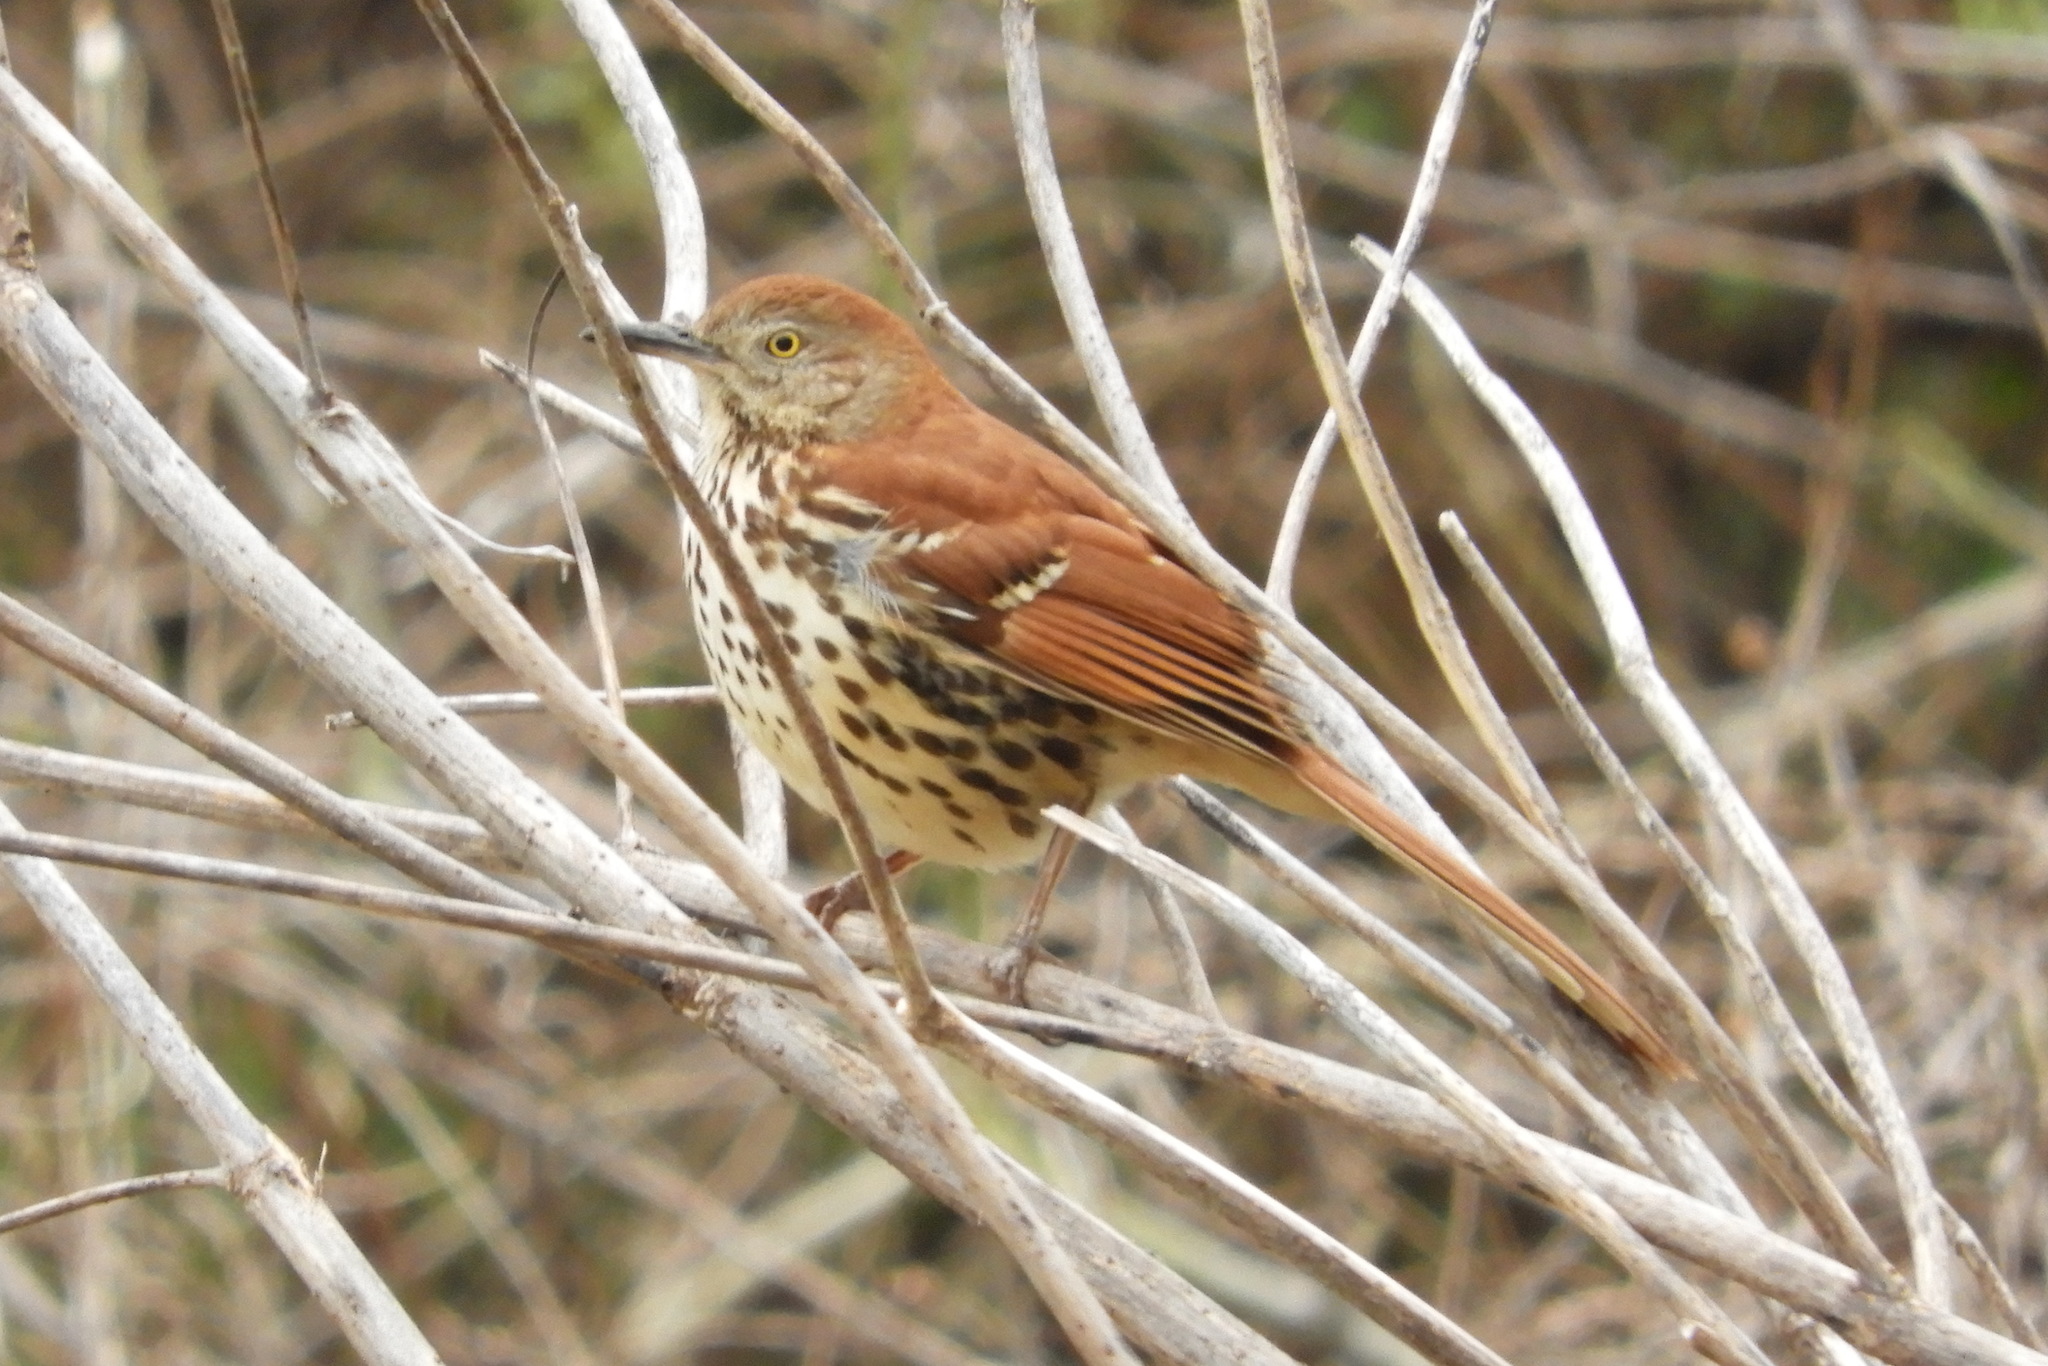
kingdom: Animalia
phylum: Chordata
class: Aves
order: Passeriformes
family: Mimidae
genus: Toxostoma
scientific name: Toxostoma rufum
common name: Brown thrasher
